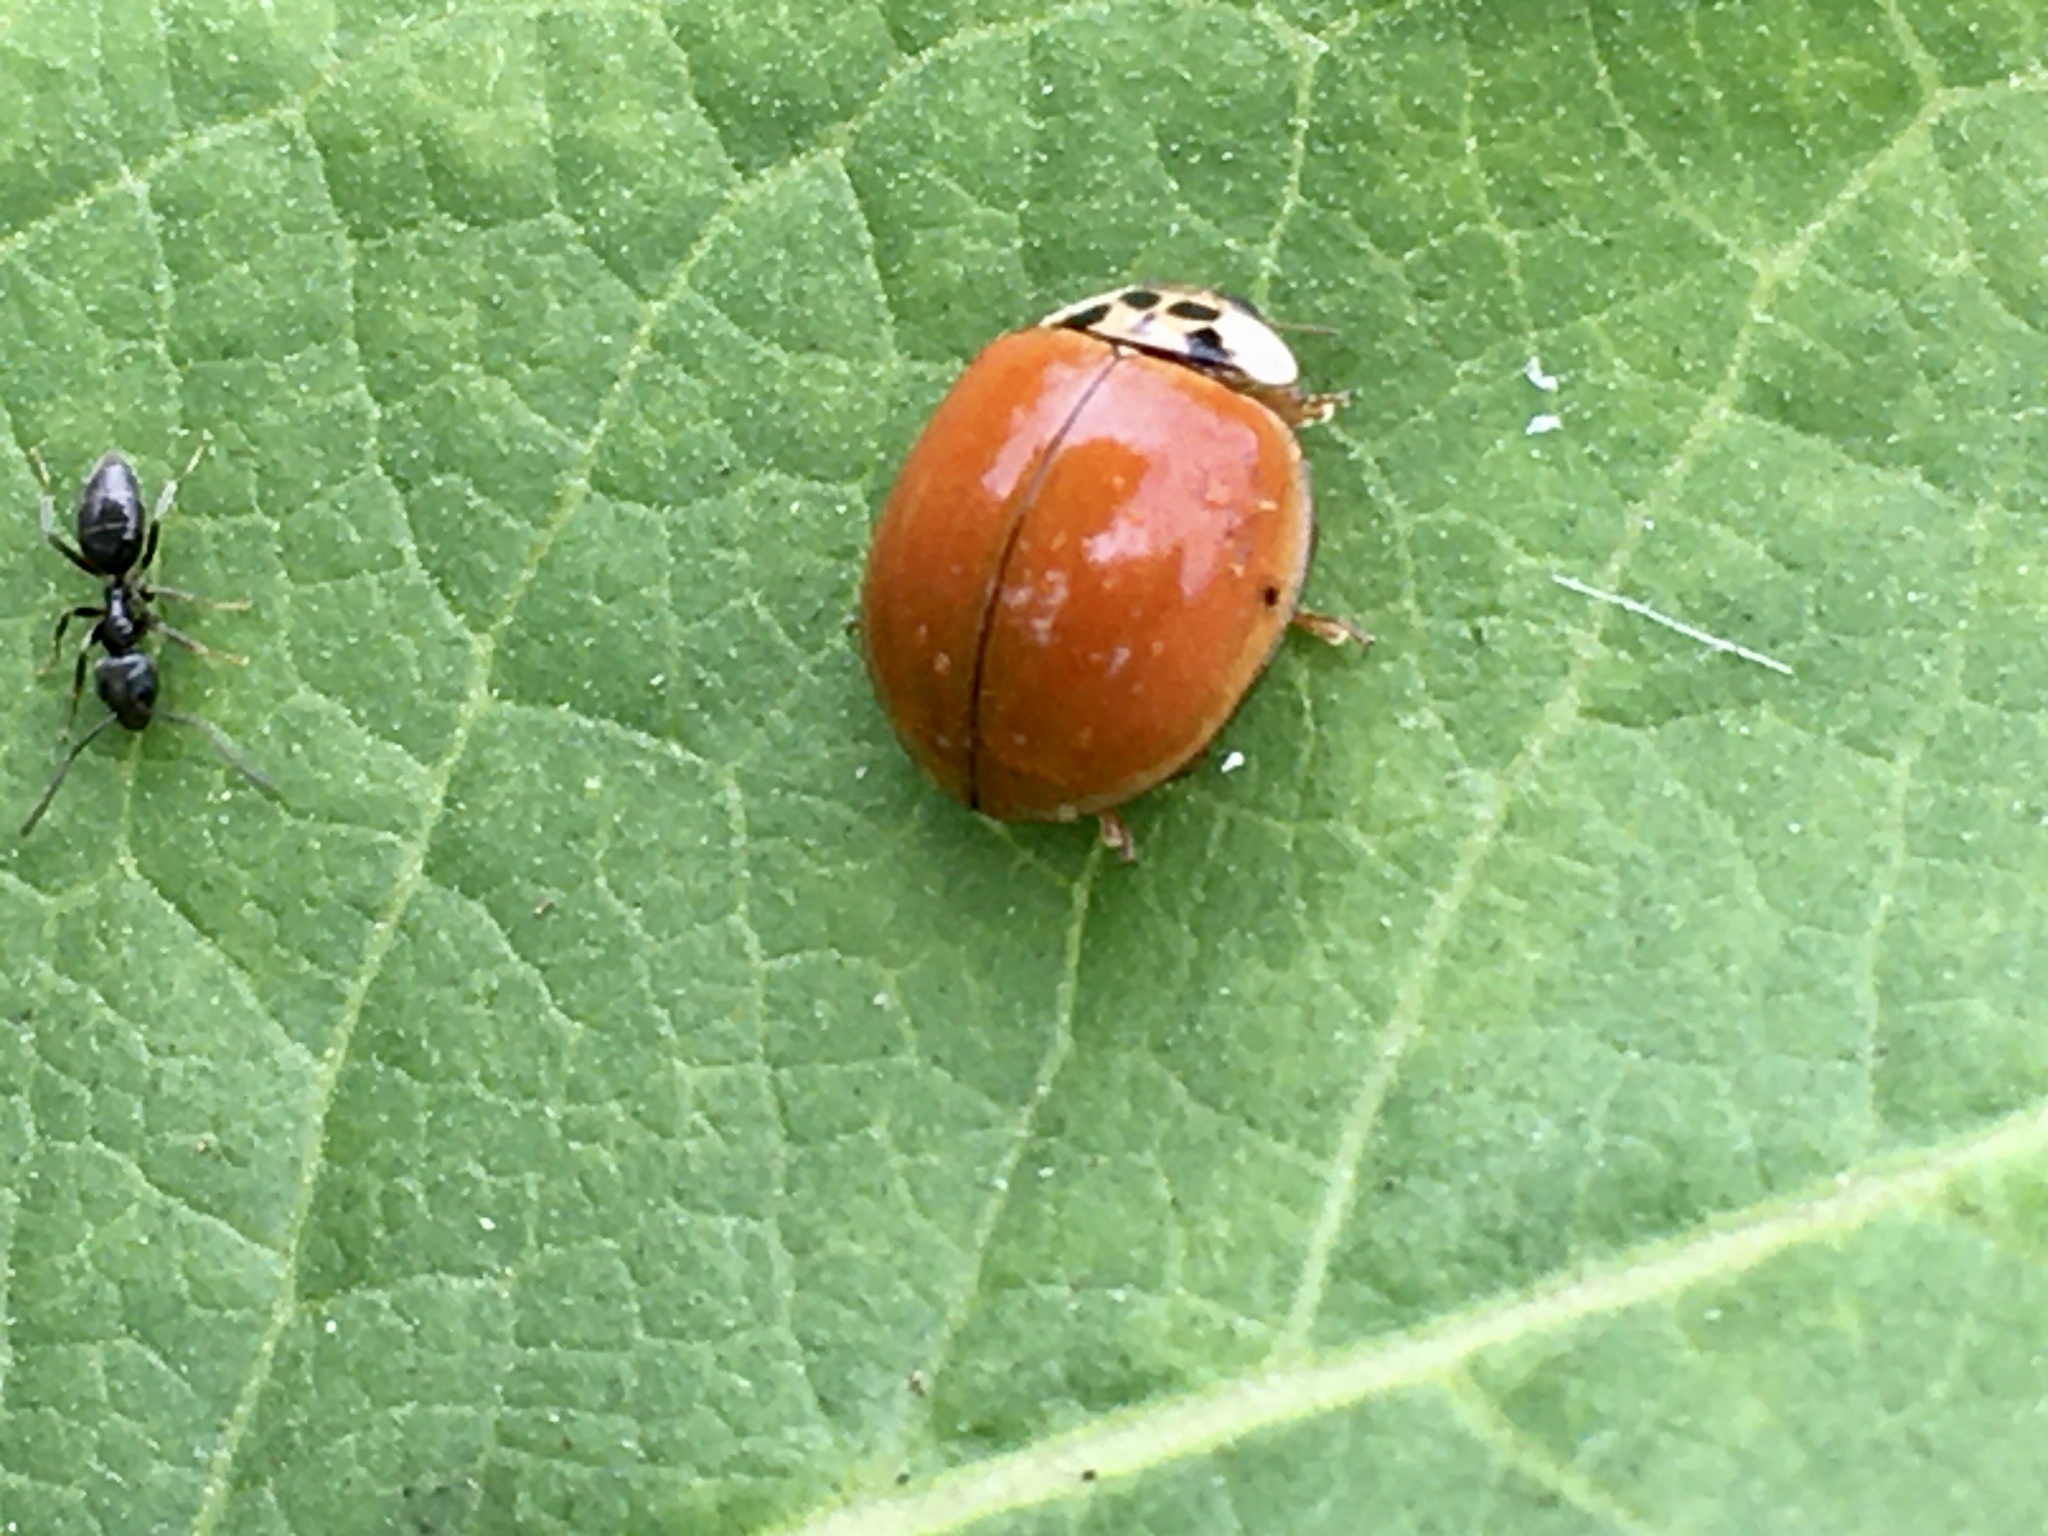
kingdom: Animalia
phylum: Arthropoda
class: Insecta
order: Coleoptera
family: Coccinellidae
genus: Harmonia
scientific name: Harmonia axyridis
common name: Harlequin ladybird
